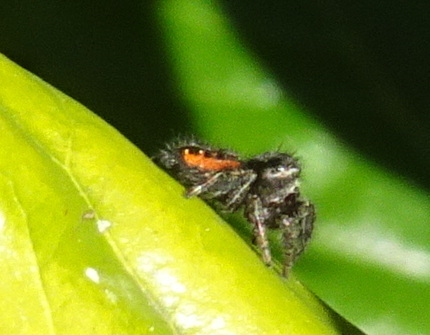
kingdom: Animalia
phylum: Arthropoda
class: Arachnida
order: Araneae
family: Salticidae
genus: Phidippus
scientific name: Phidippus johnsoni
